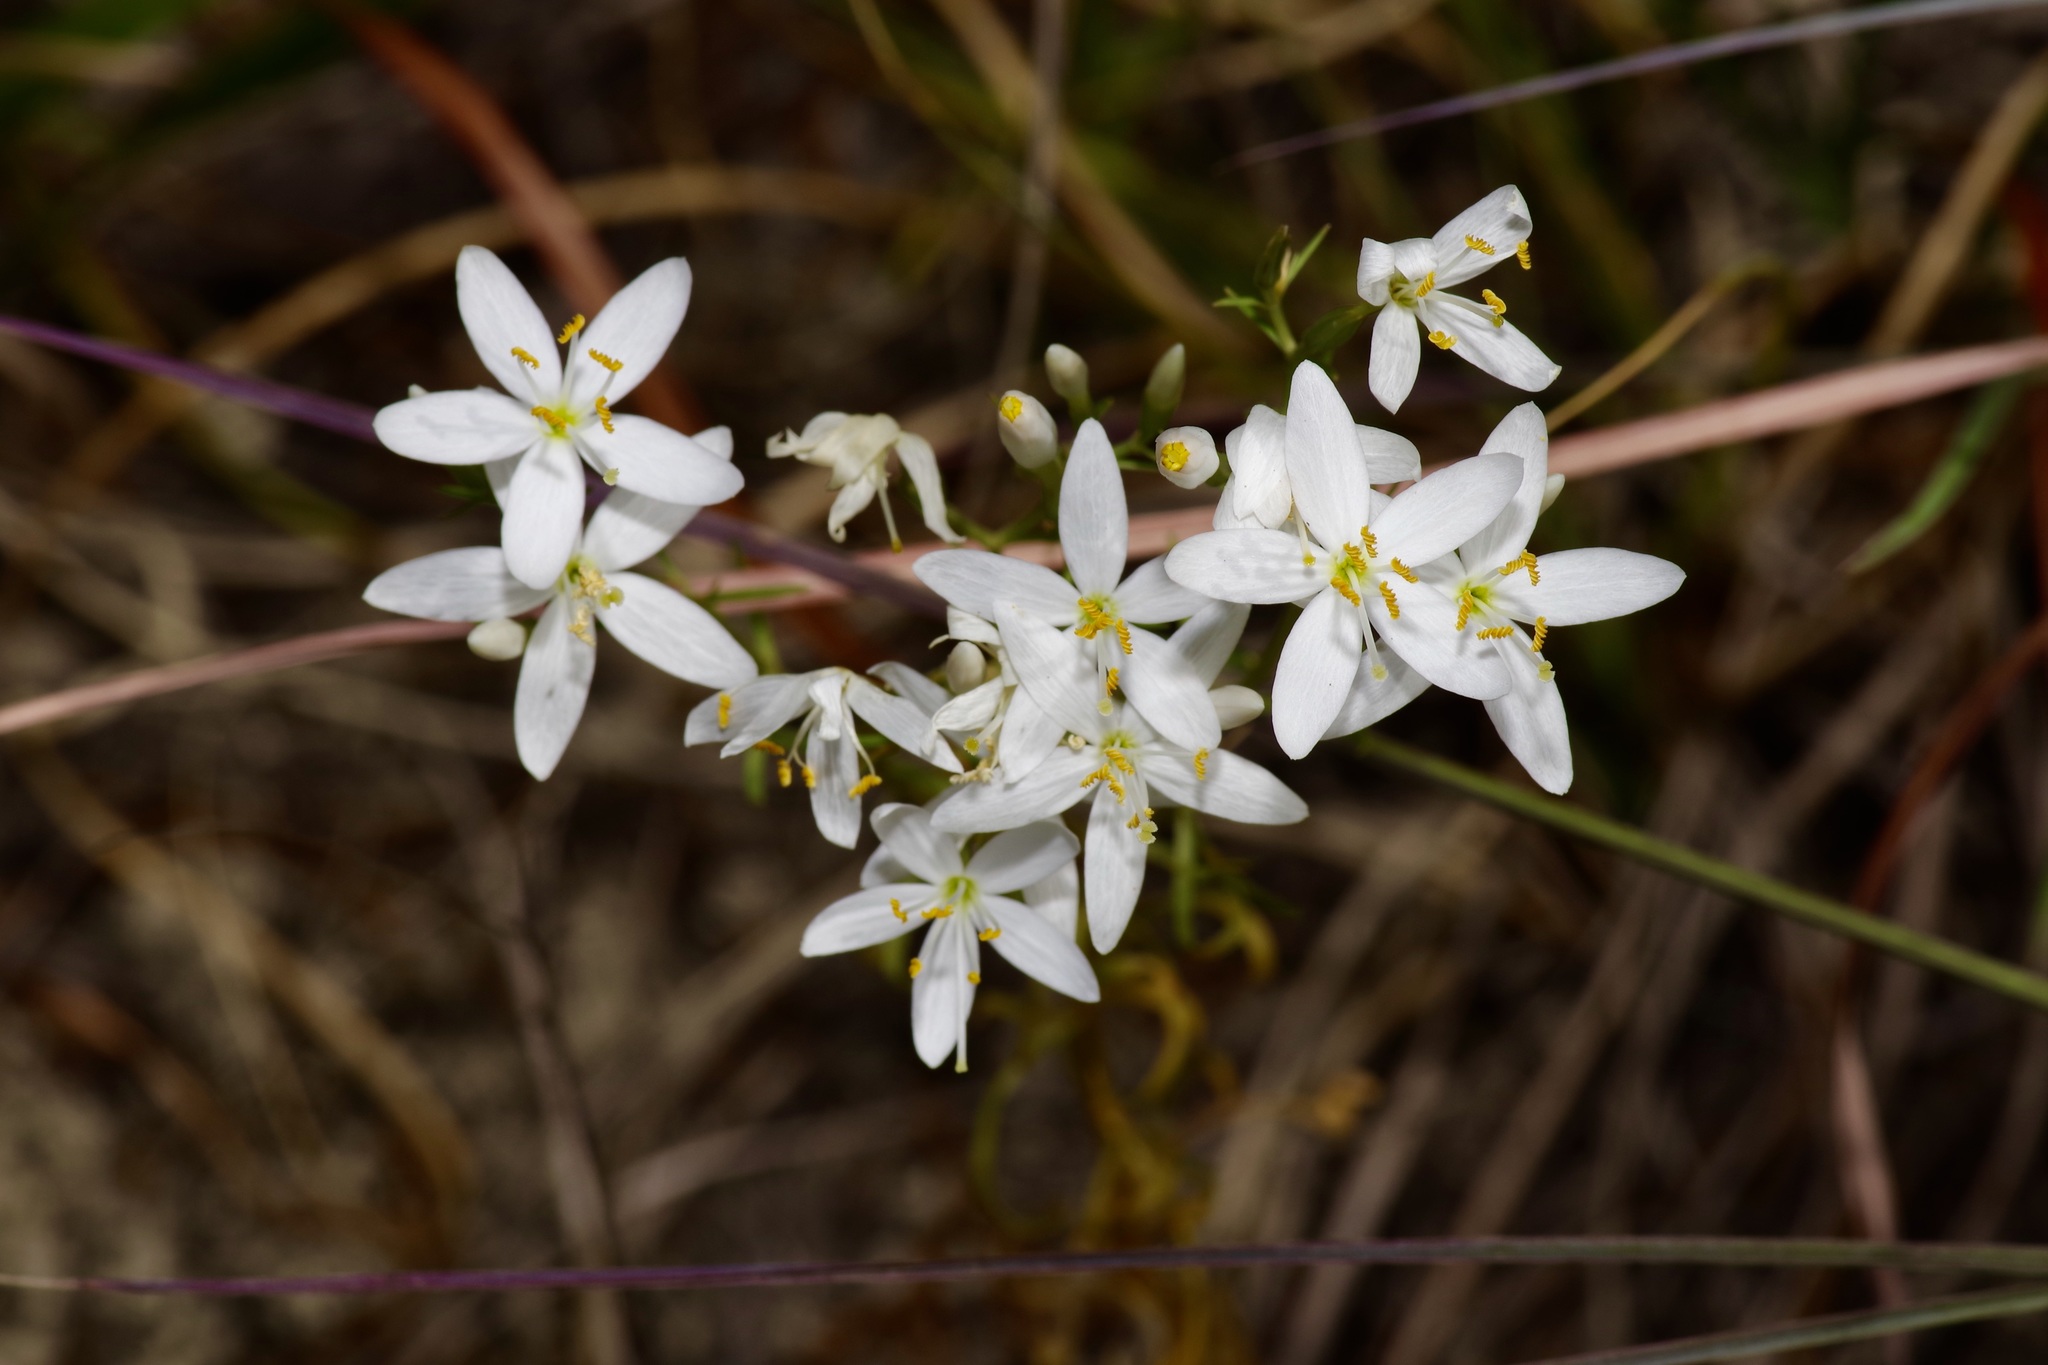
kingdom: Plantae
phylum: Tracheophyta
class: Magnoliopsida
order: Gentianales
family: Gentianaceae
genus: Zeltnera
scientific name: Zeltnera beyrichii
